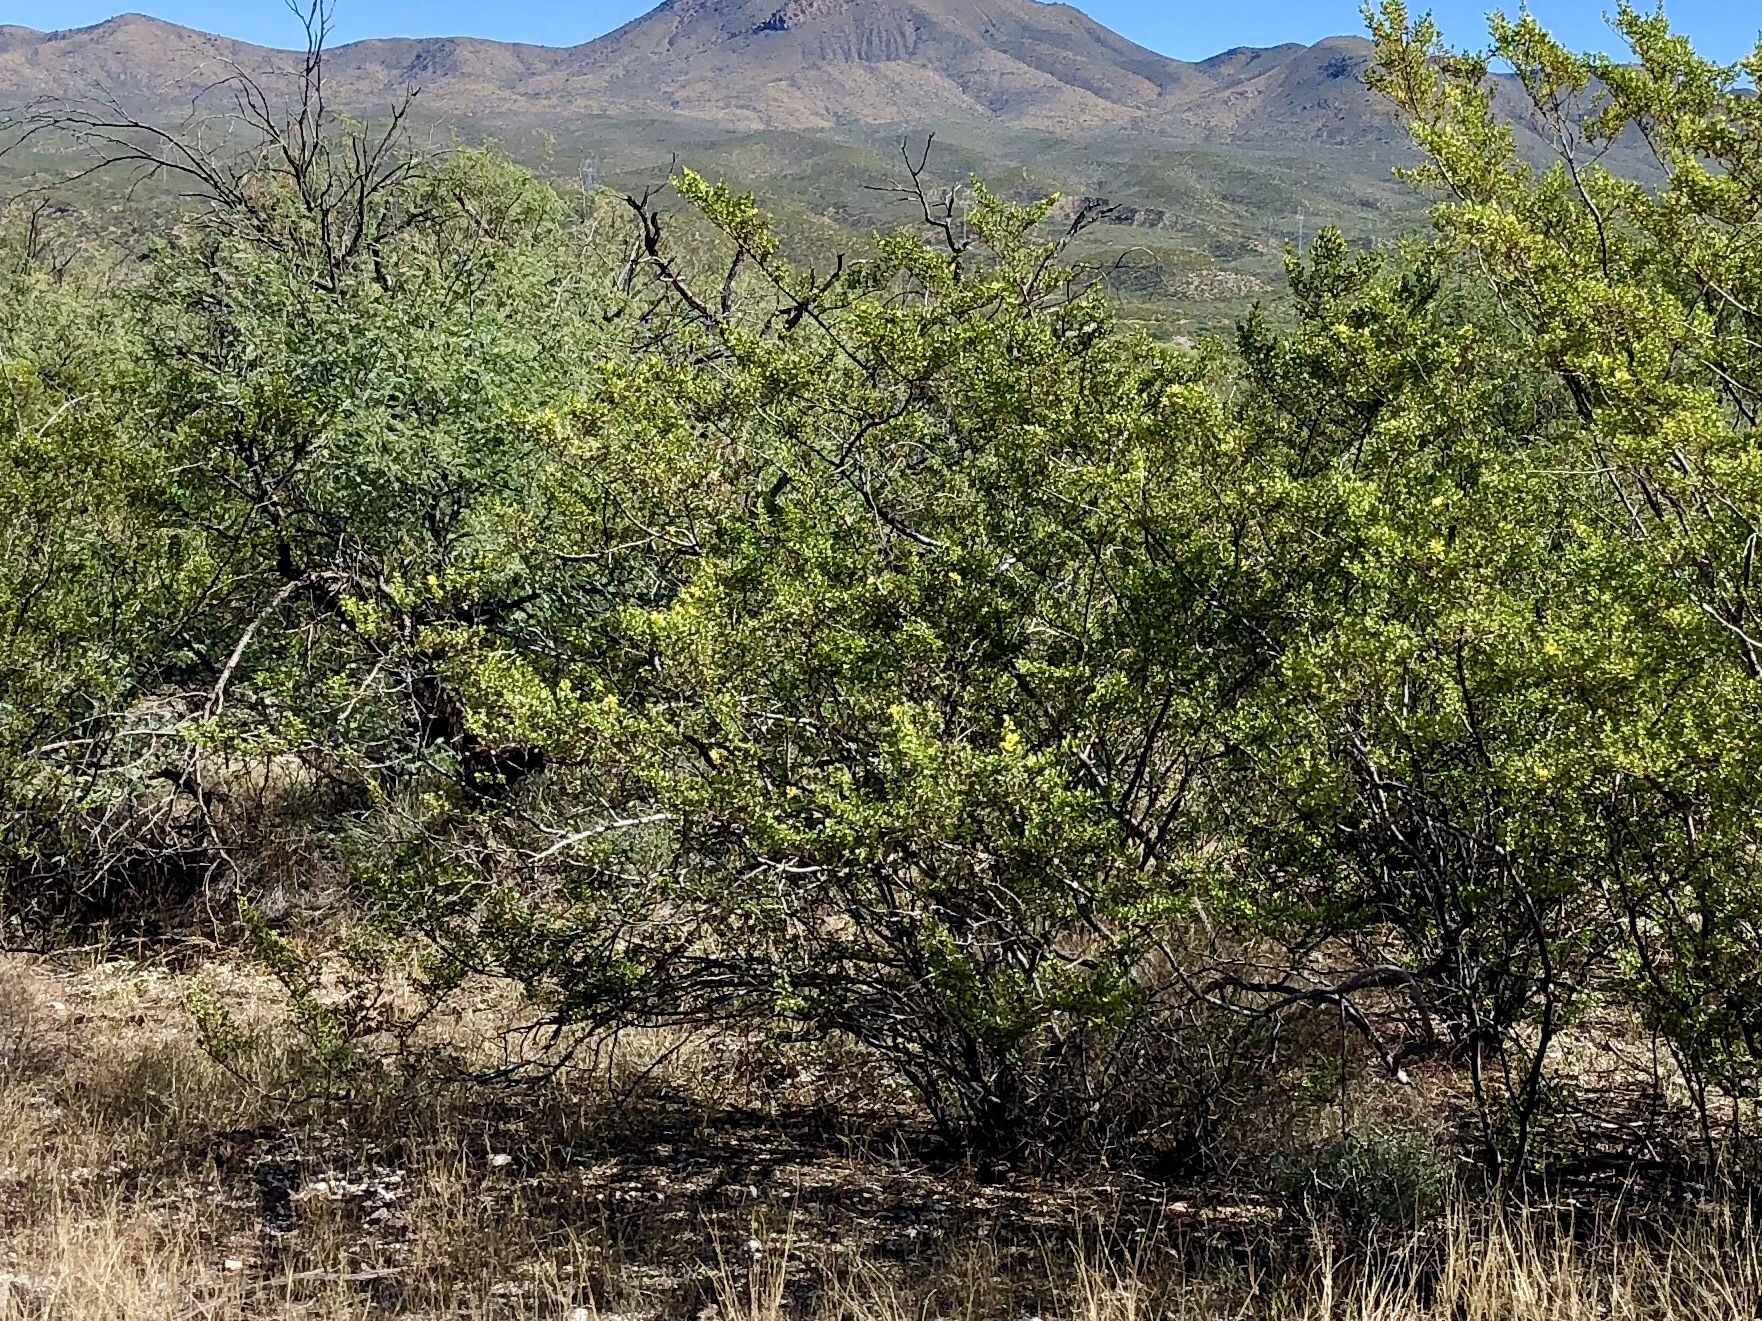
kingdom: Plantae
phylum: Tracheophyta
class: Magnoliopsida
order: Zygophyllales
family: Zygophyllaceae
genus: Larrea
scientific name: Larrea tridentata
